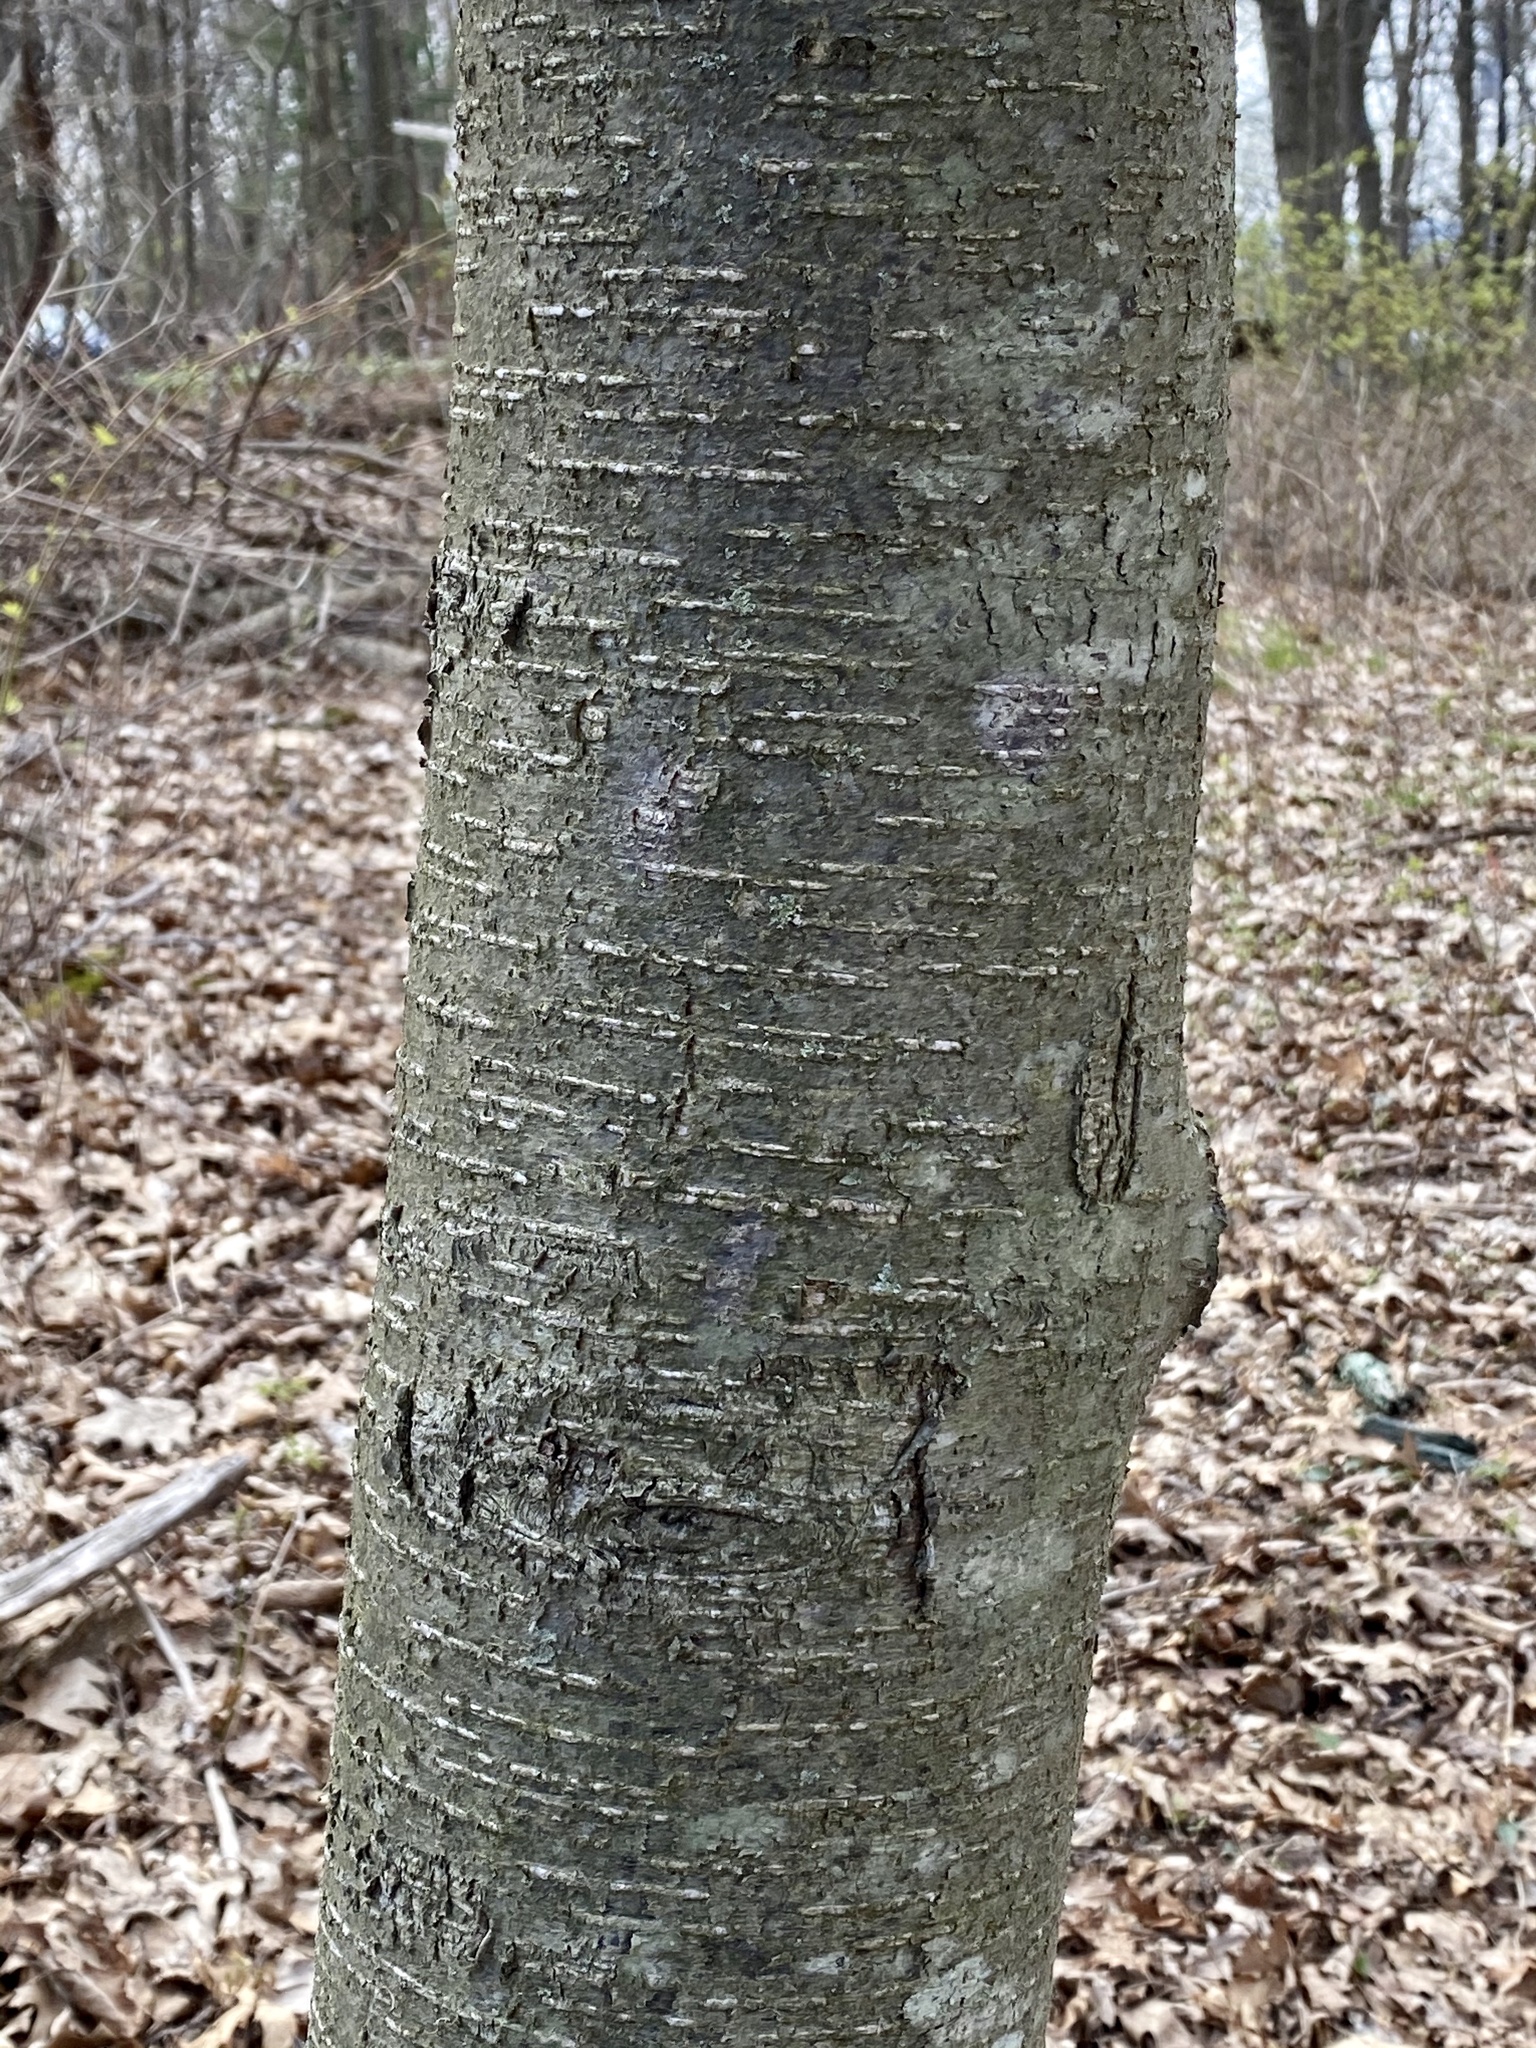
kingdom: Plantae
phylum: Tracheophyta
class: Magnoliopsida
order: Fagales
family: Betulaceae
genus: Betula
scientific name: Betula lenta
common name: Black birch
